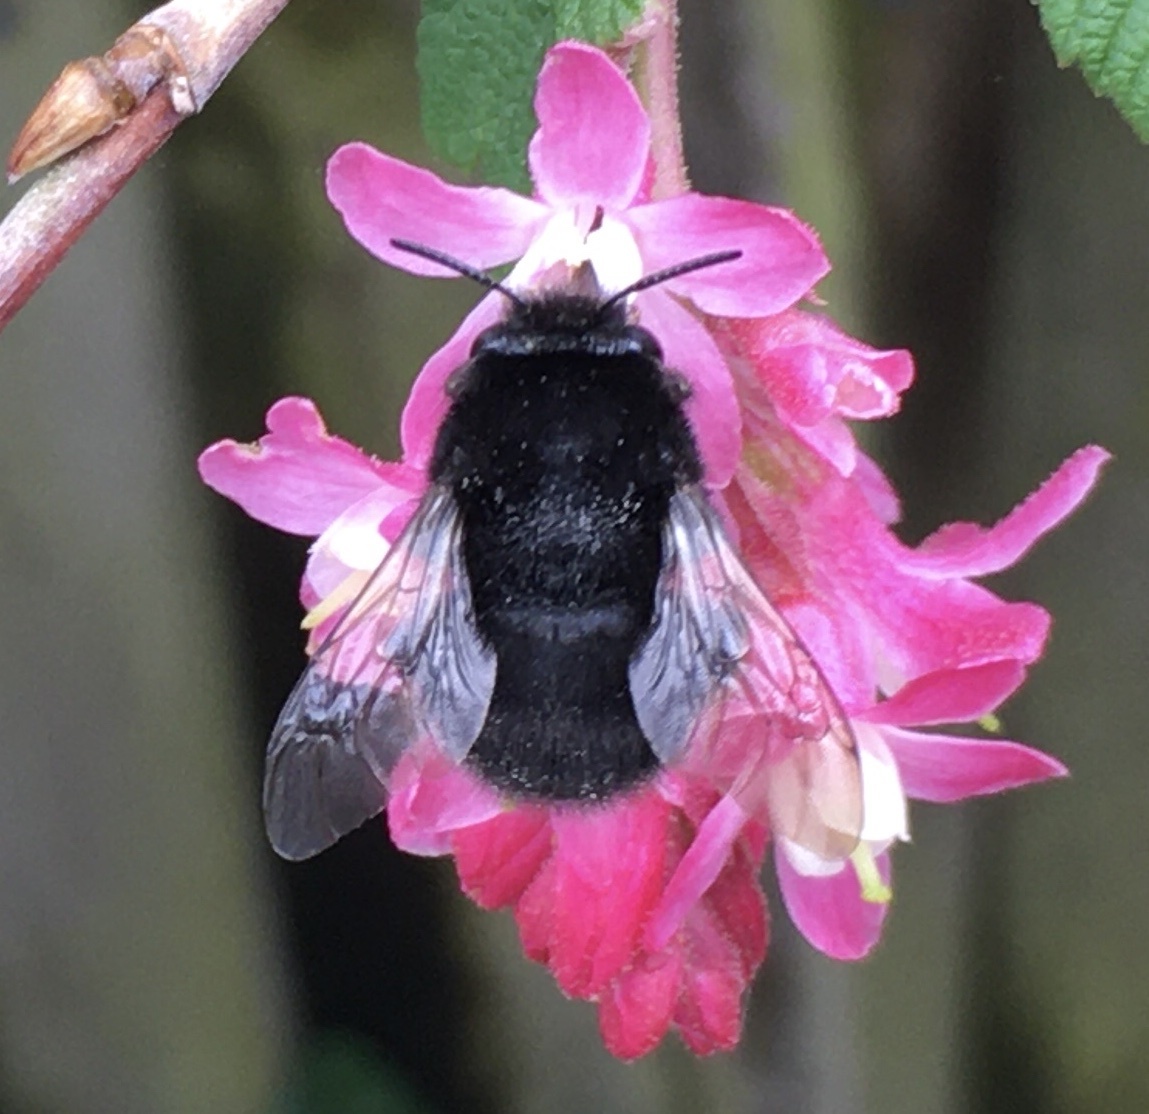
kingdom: Animalia
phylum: Arthropoda
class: Insecta
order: Hymenoptera
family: Apidae
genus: Anthophora
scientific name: Anthophora plumipes
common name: Hairy-footed flower bee
